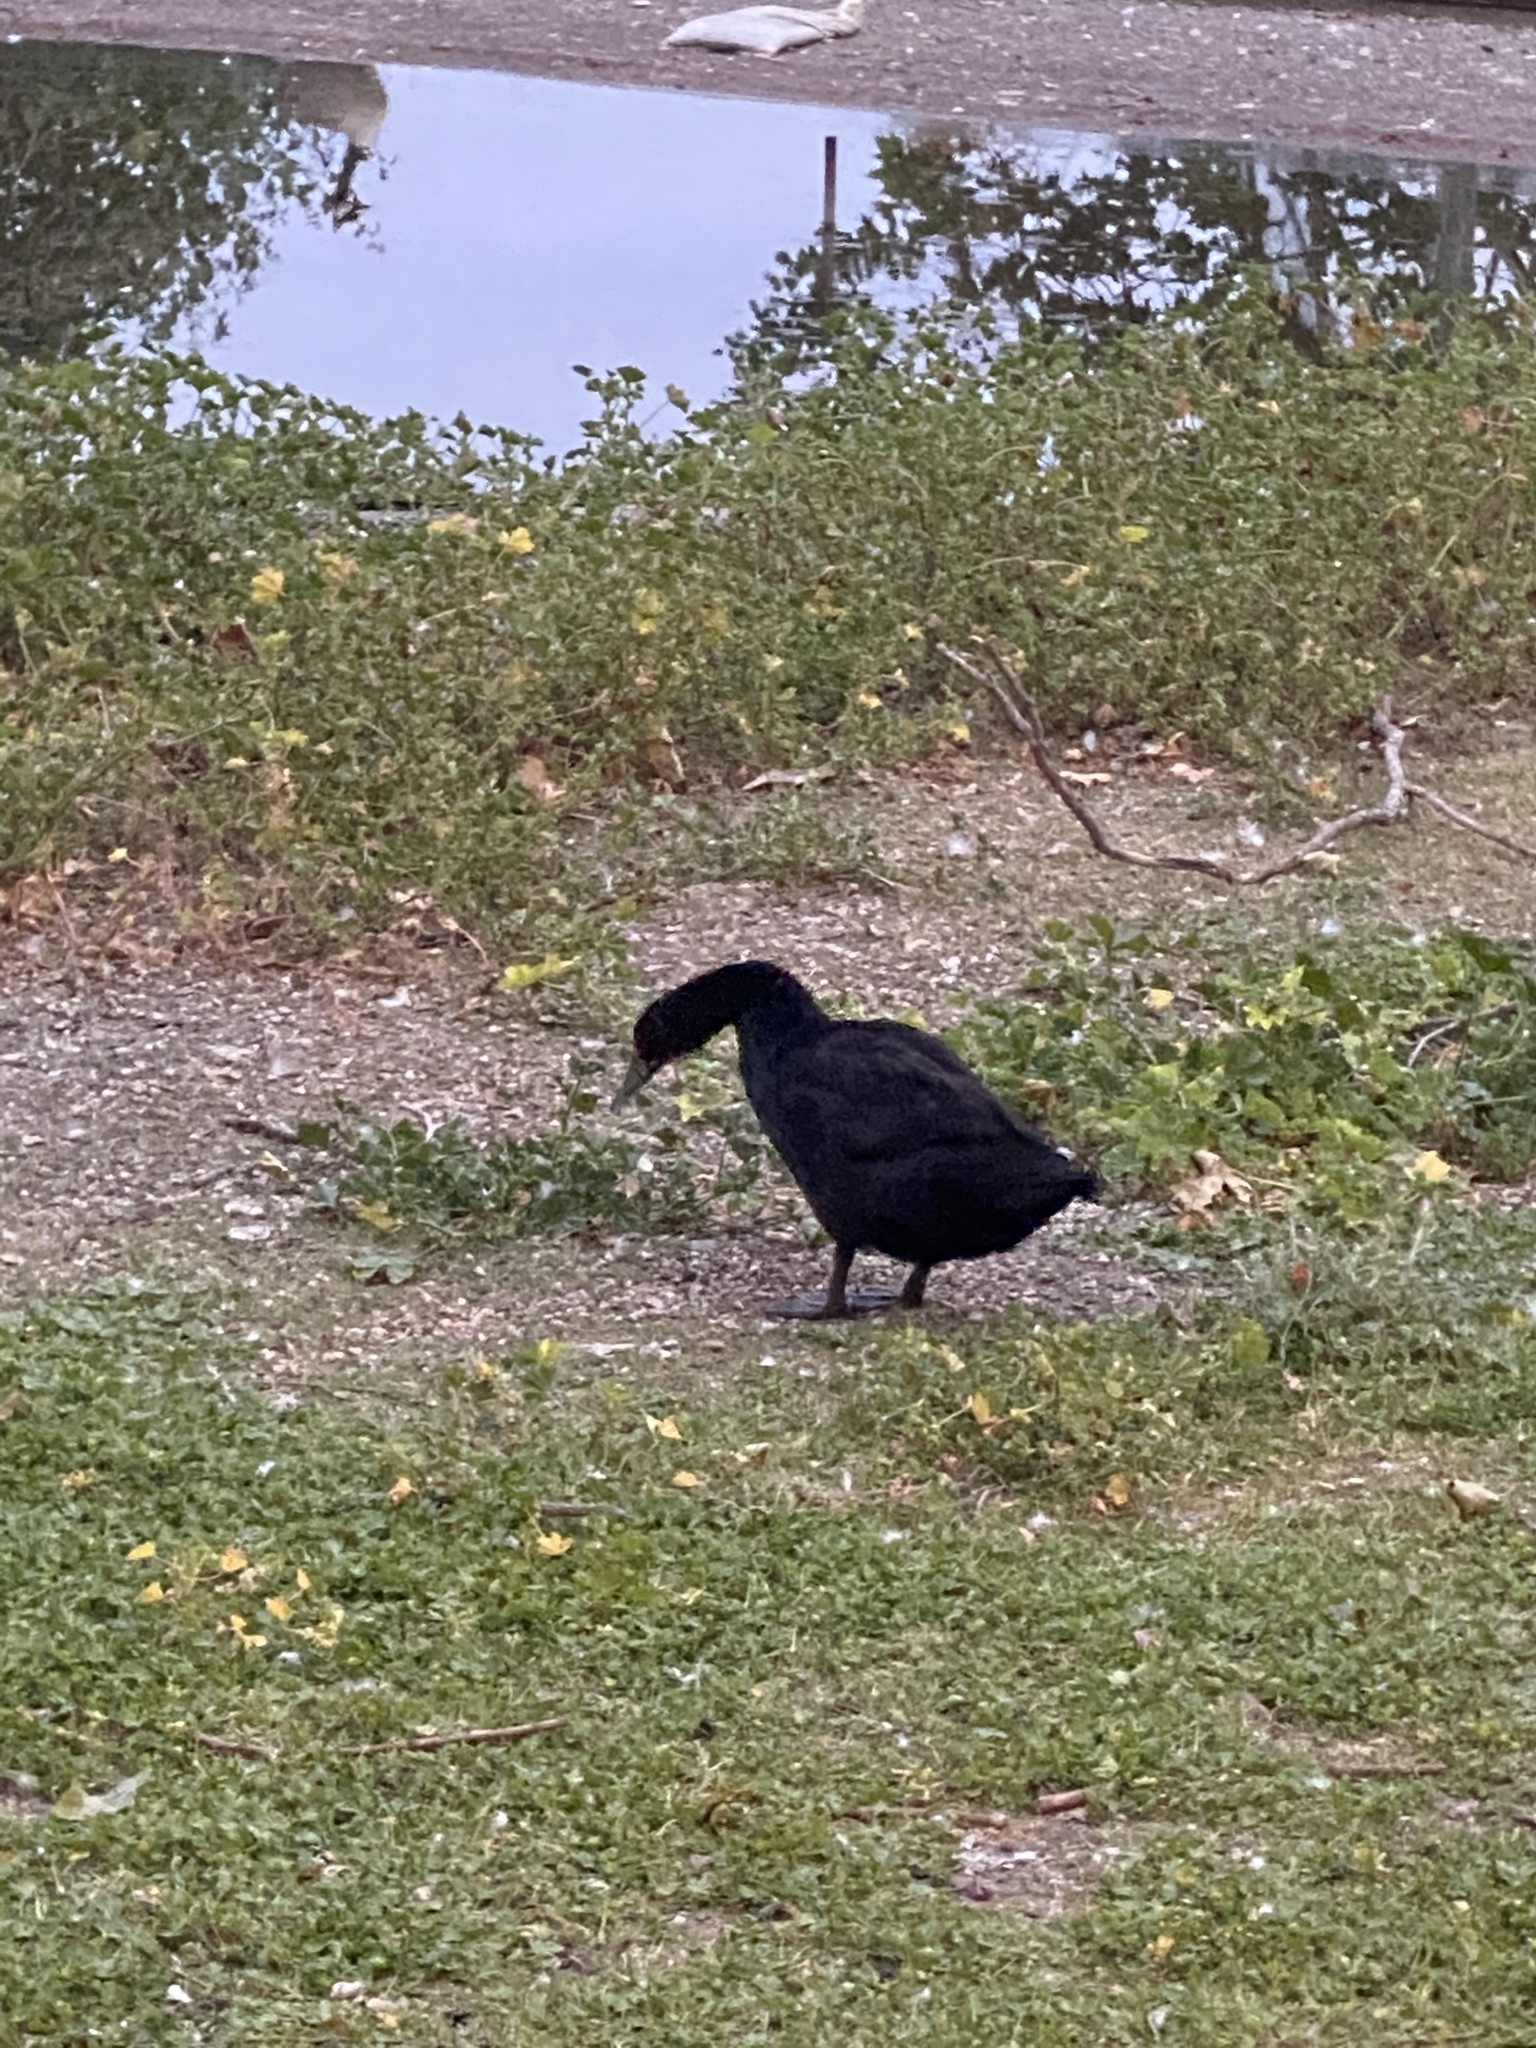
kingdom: Animalia
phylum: Chordata
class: Aves
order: Anseriformes
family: Anatidae
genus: Anas
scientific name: Anas platyrhynchos
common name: Mallard
